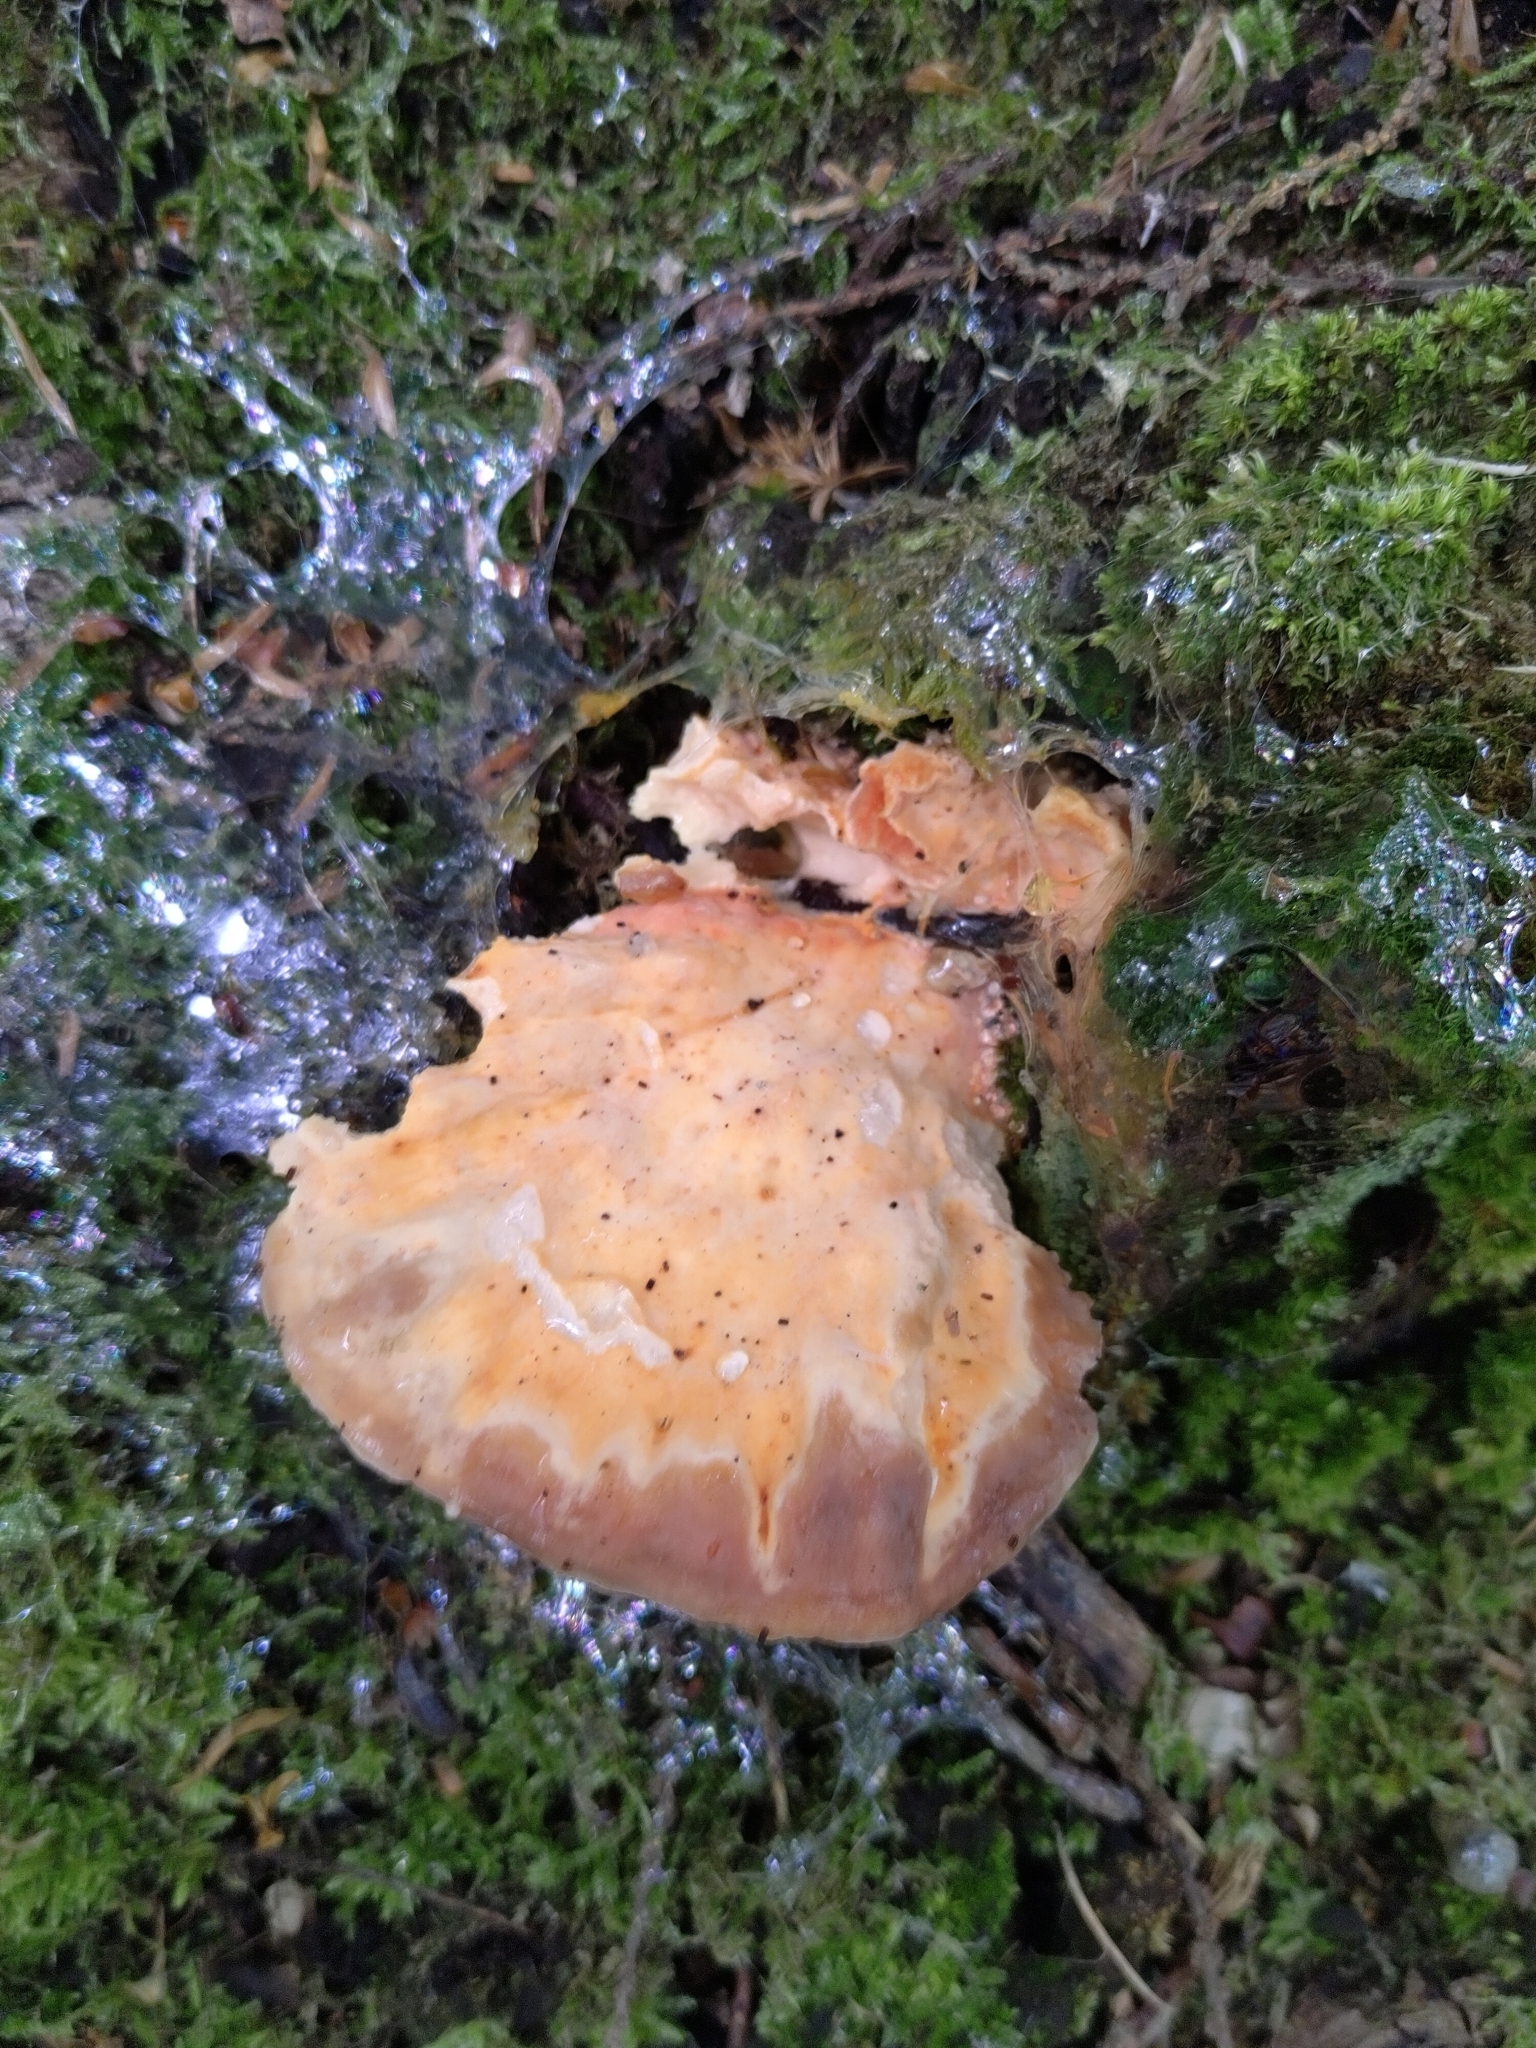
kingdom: Fungi
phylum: Basidiomycota
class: Agaricomycetes
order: Polyporales
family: Laetiporaceae
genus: Laetiporus
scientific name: Laetiporus sulphureus
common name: Chicken of the woods
